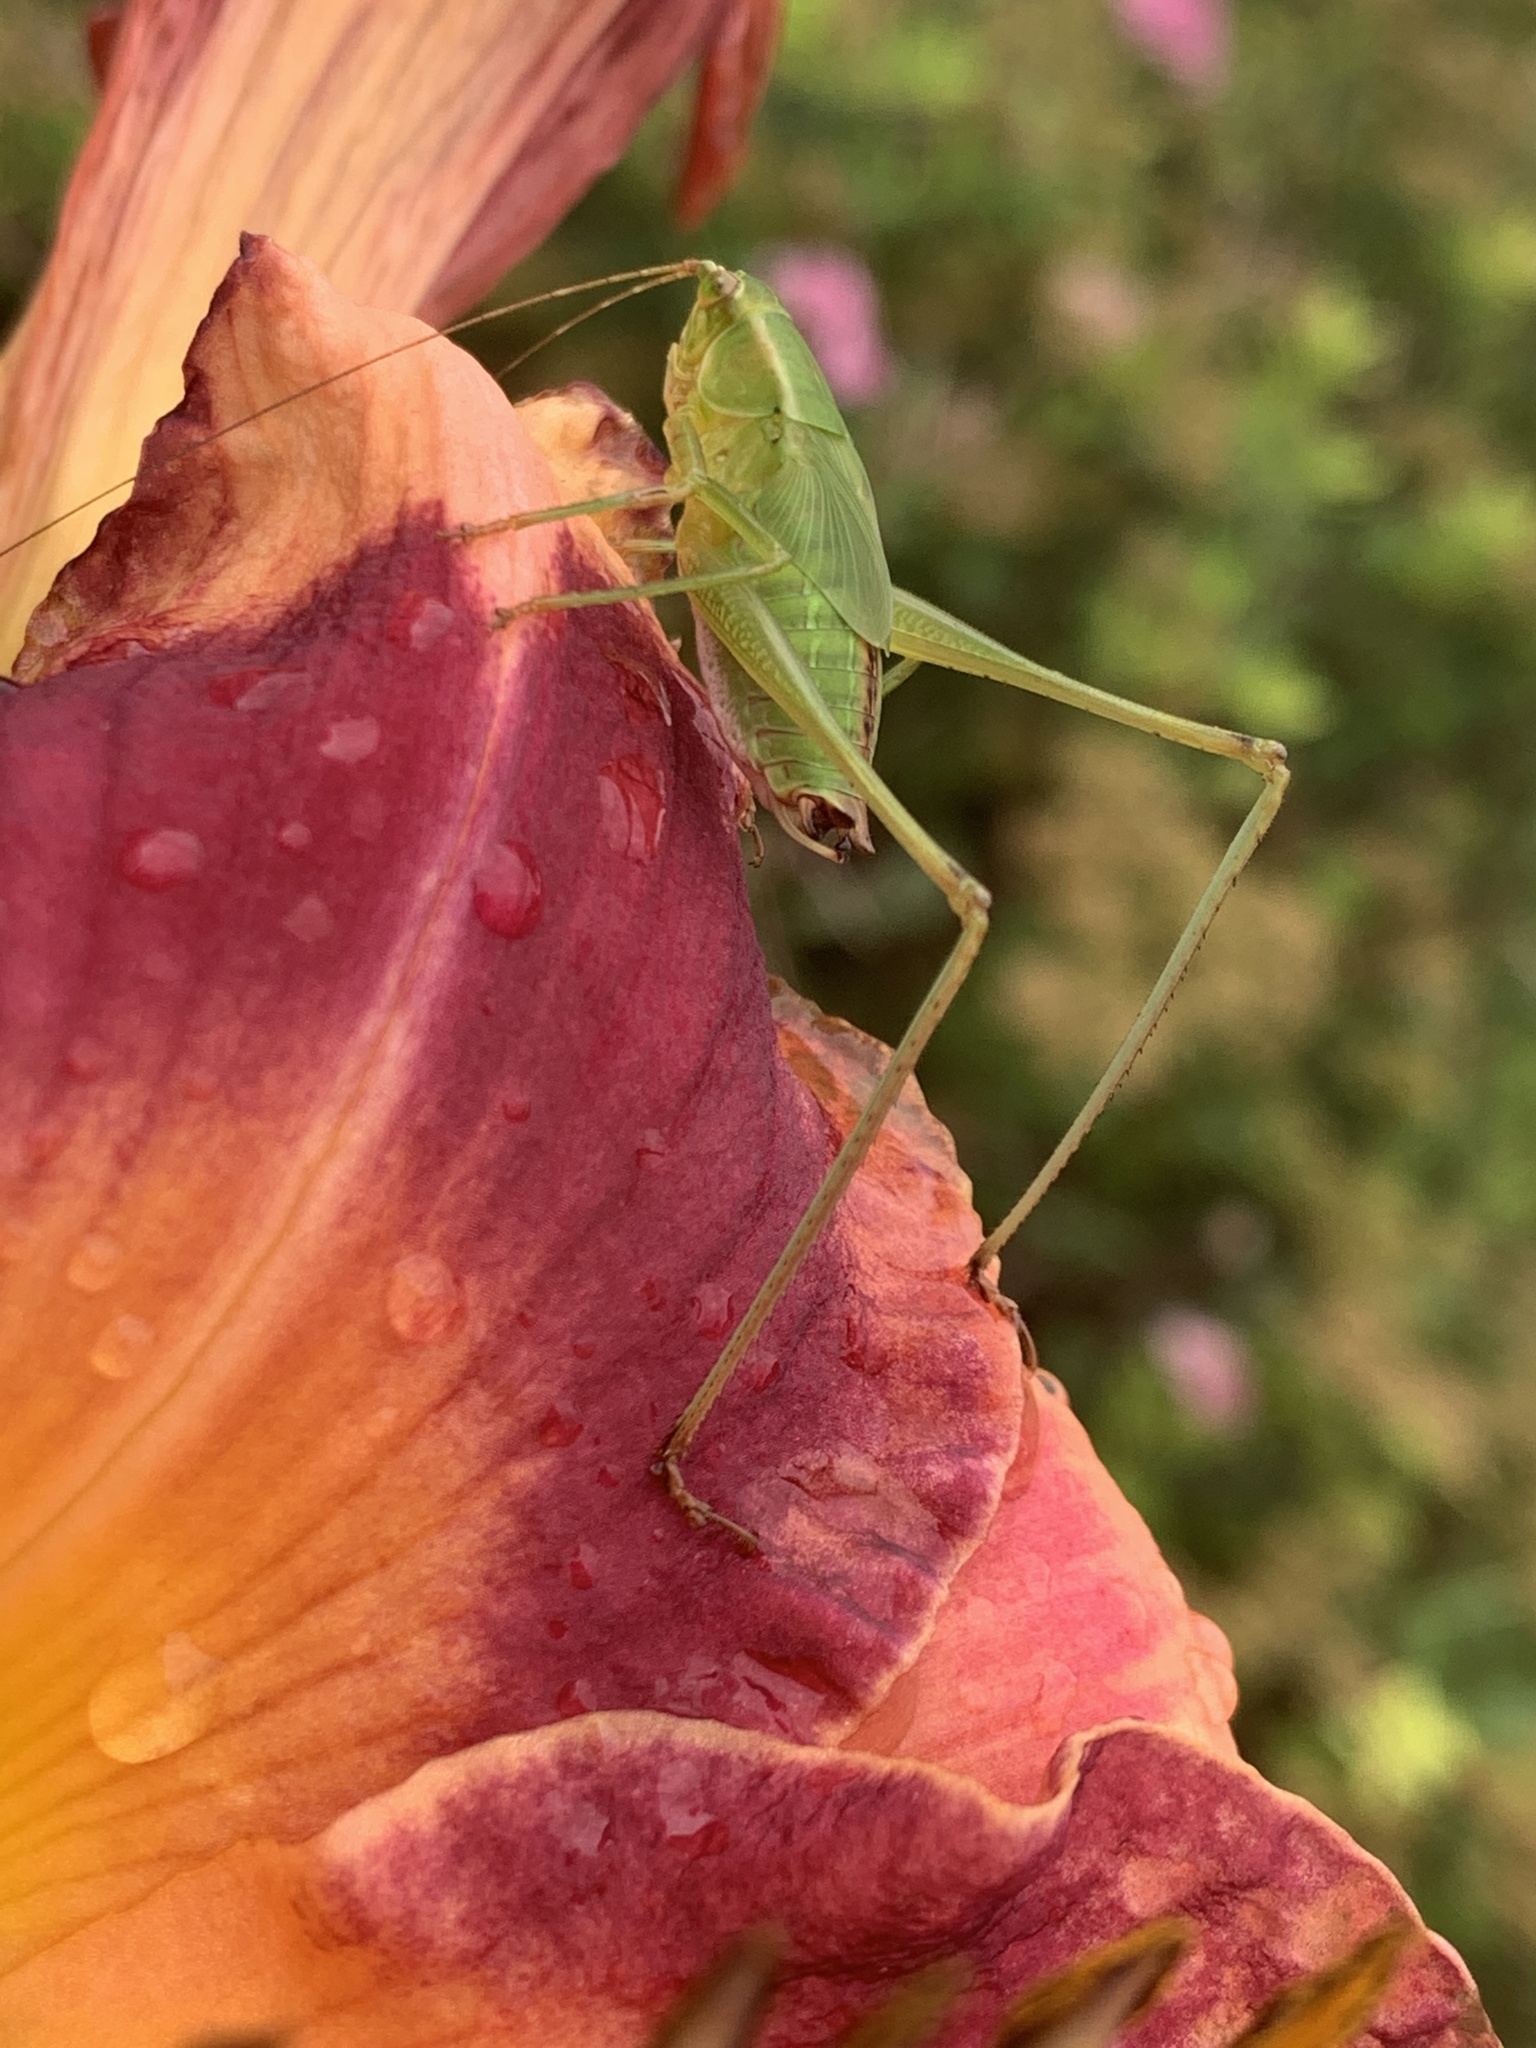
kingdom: Animalia
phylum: Arthropoda
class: Insecta
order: Orthoptera
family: Tettigoniidae
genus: Scudderia
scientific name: Scudderia
